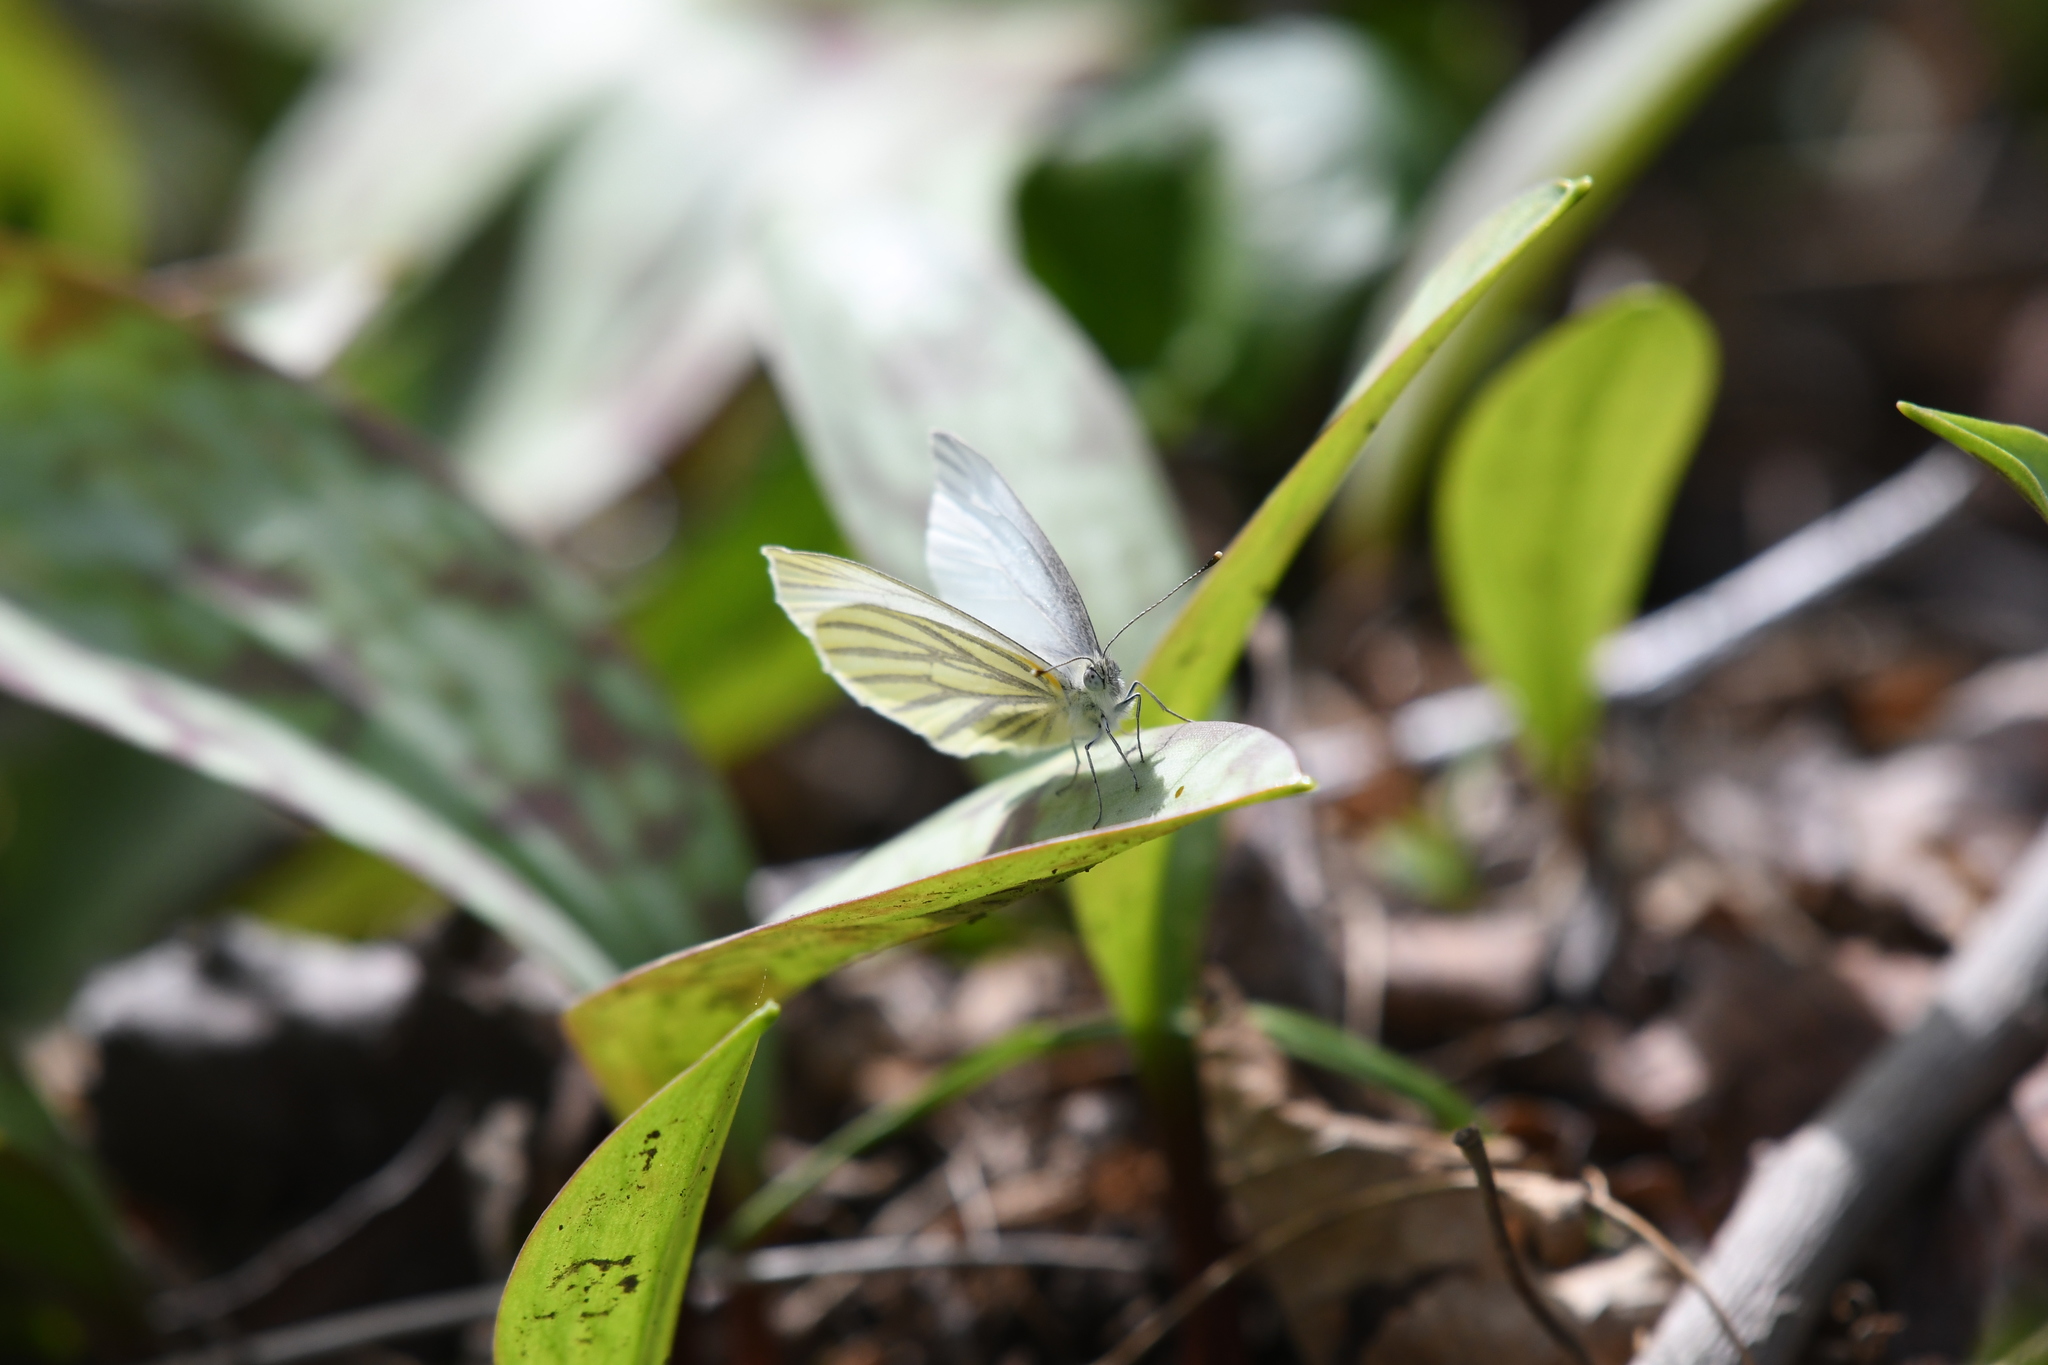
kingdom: Animalia
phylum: Arthropoda
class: Insecta
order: Lepidoptera
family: Pieridae
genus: Pieris
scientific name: Pieris oleracea
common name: Mustard white
